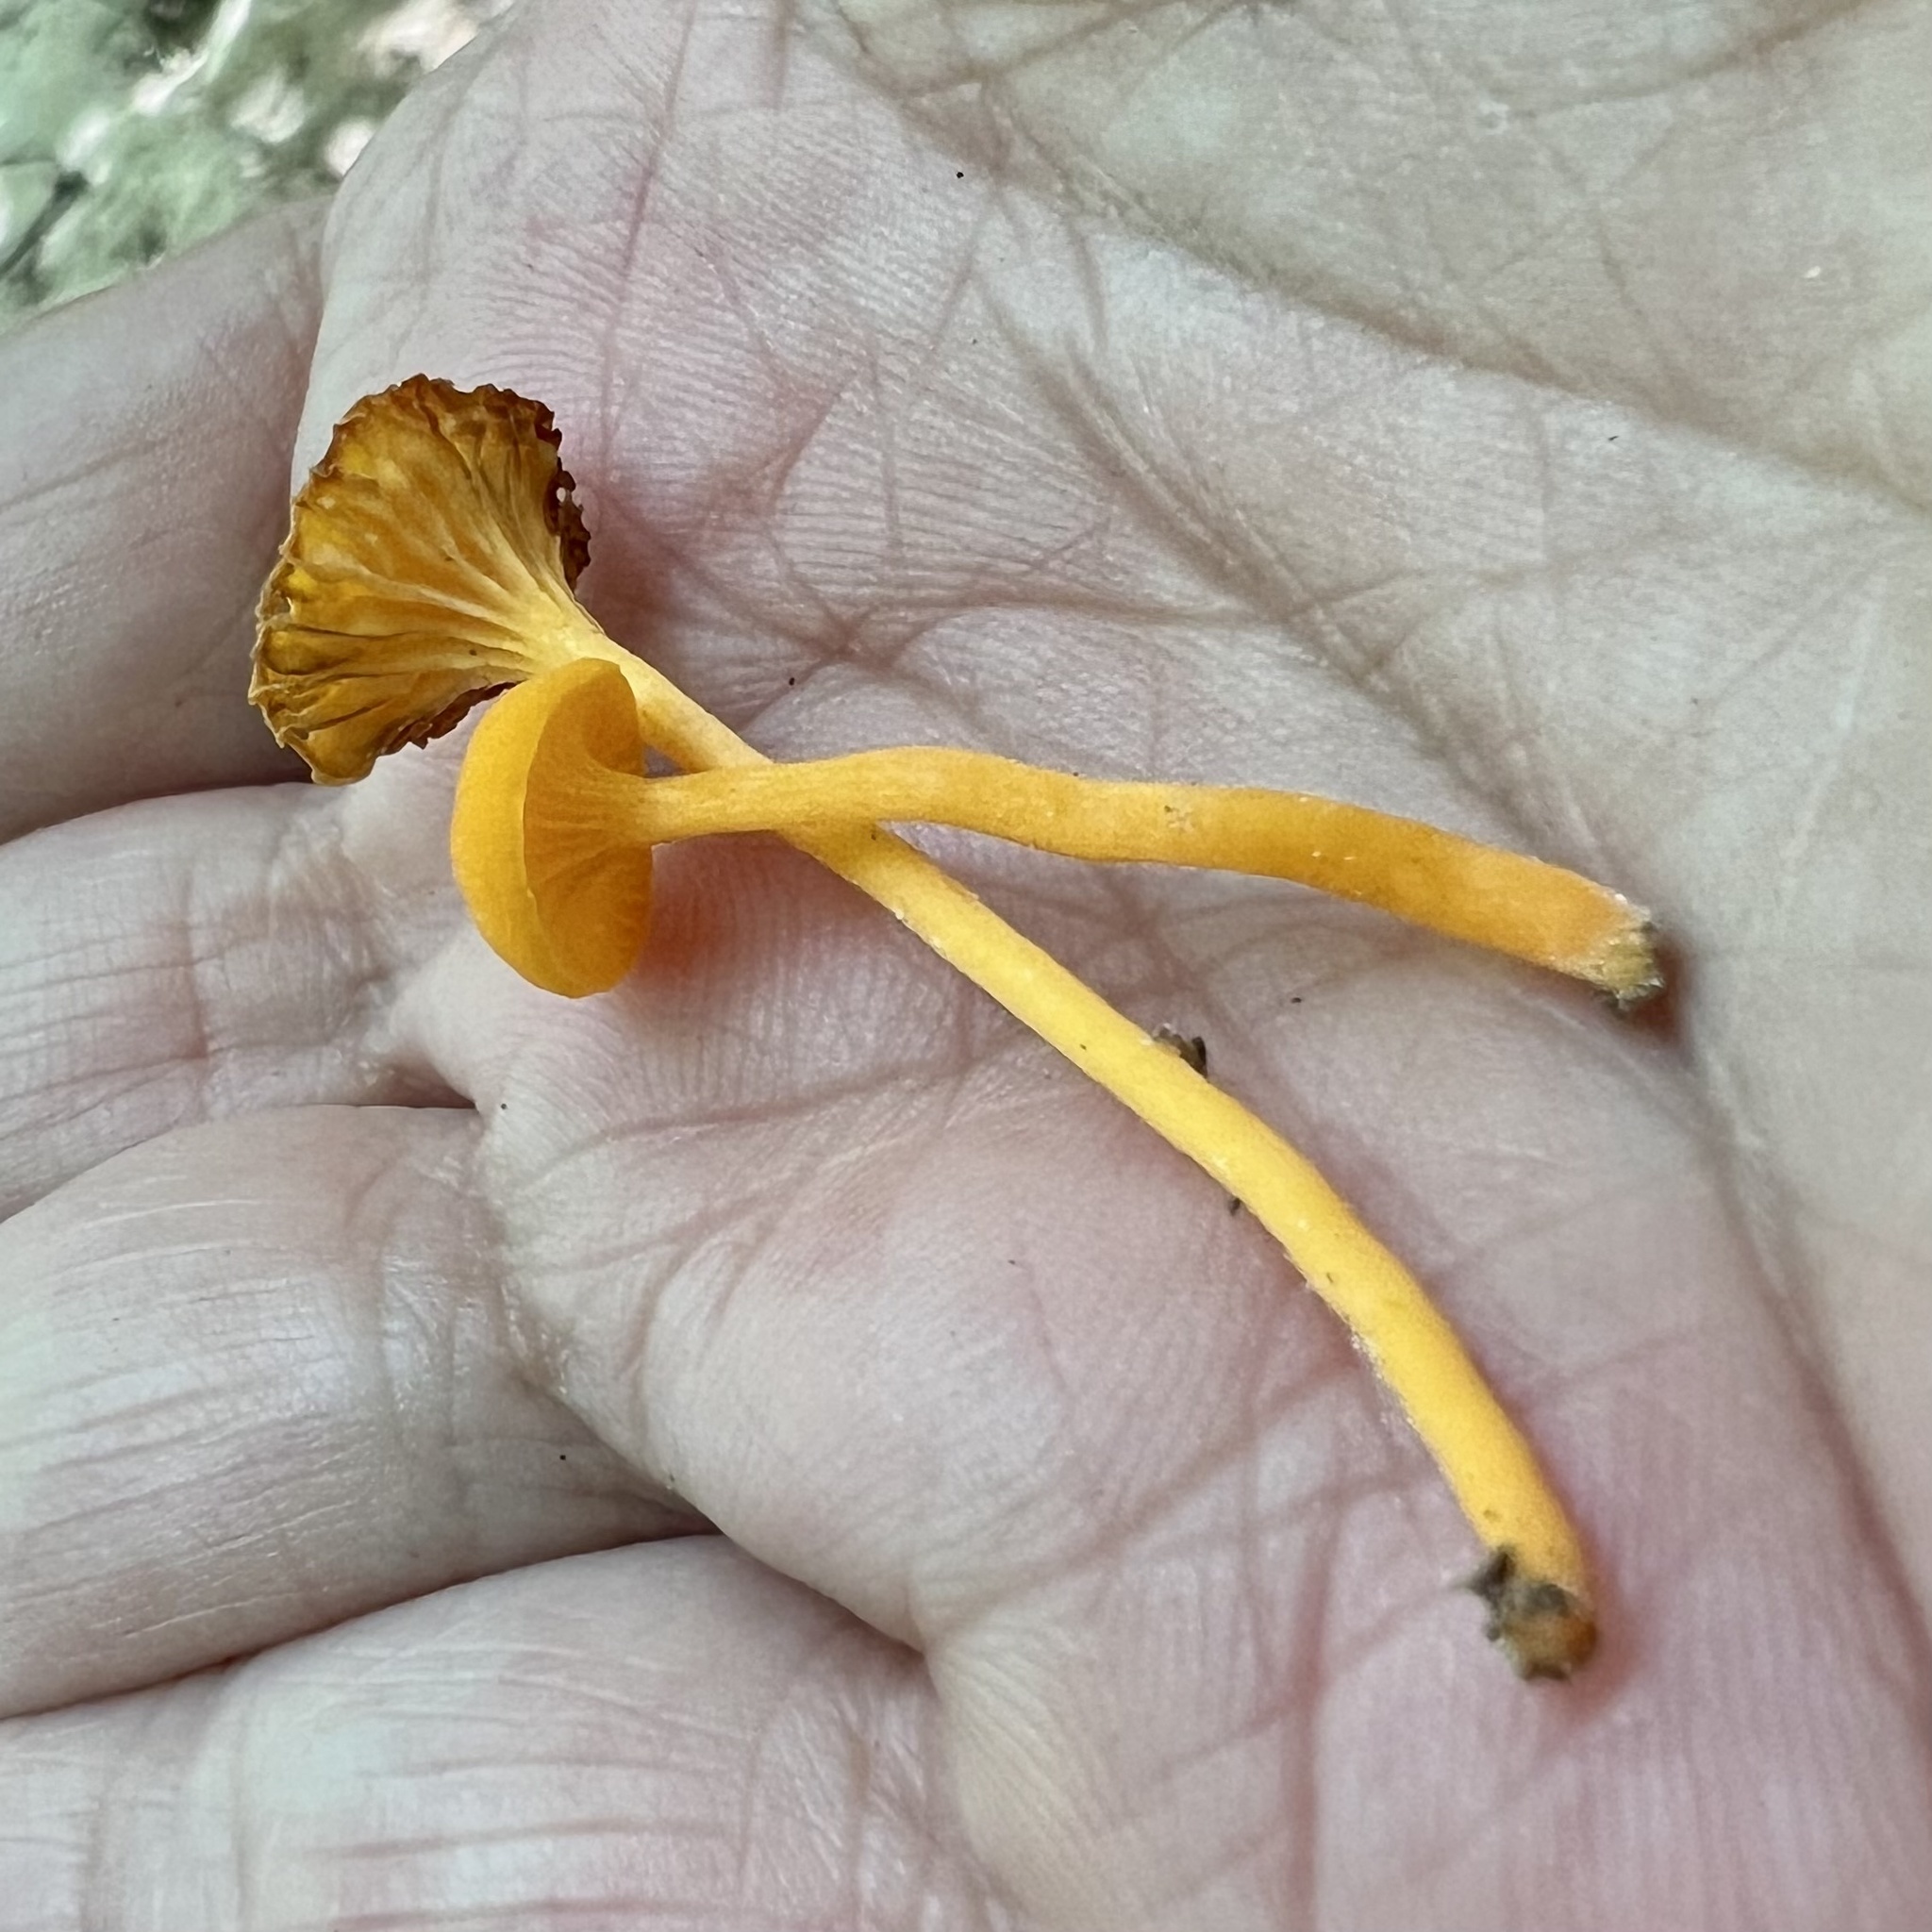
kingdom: Fungi
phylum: Basidiomycota
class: Agaricomycetes
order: Cantharellales
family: Hydnaceae
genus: Cantharellus
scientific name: Cantharellus minor
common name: Small chanterelle
